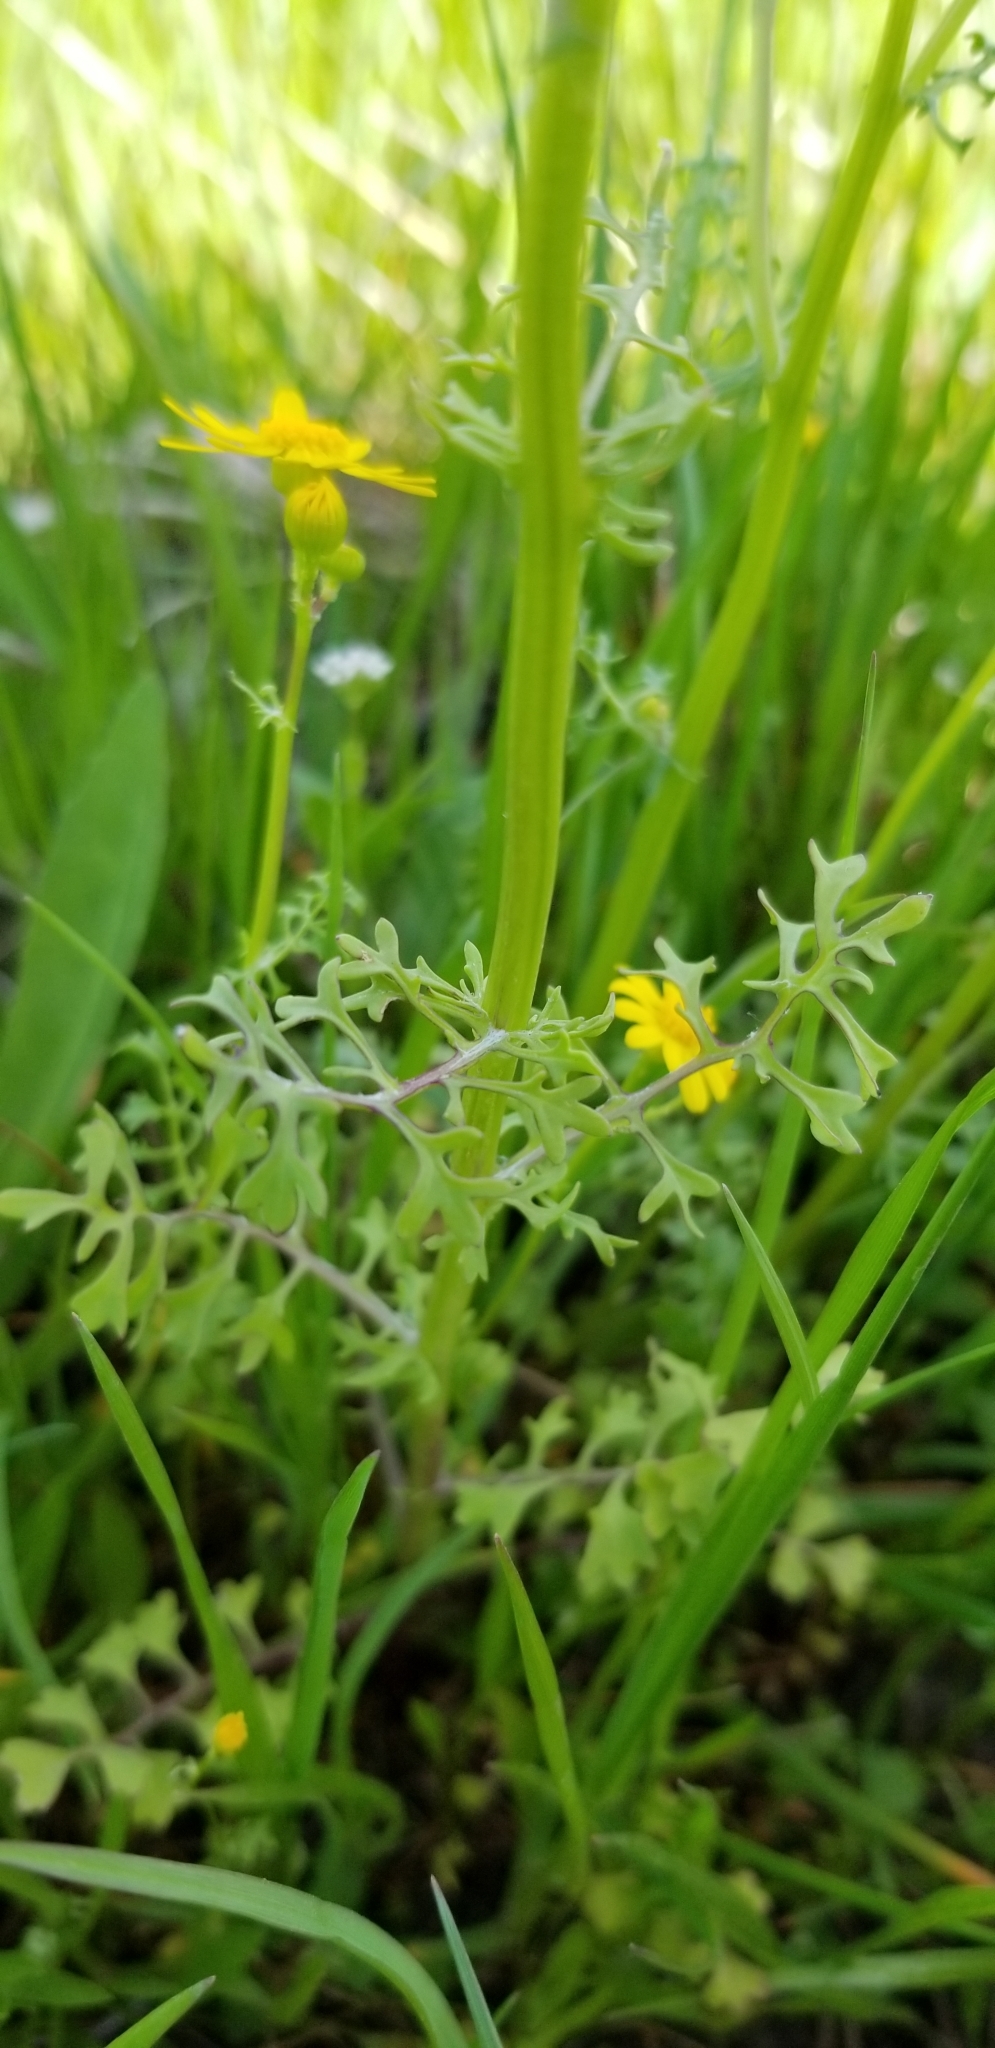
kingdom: Plantae
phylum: Tracheophyta
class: Magnoliopsida
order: Asterales
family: Asteraceae
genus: Packera
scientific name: Packera tampicana
